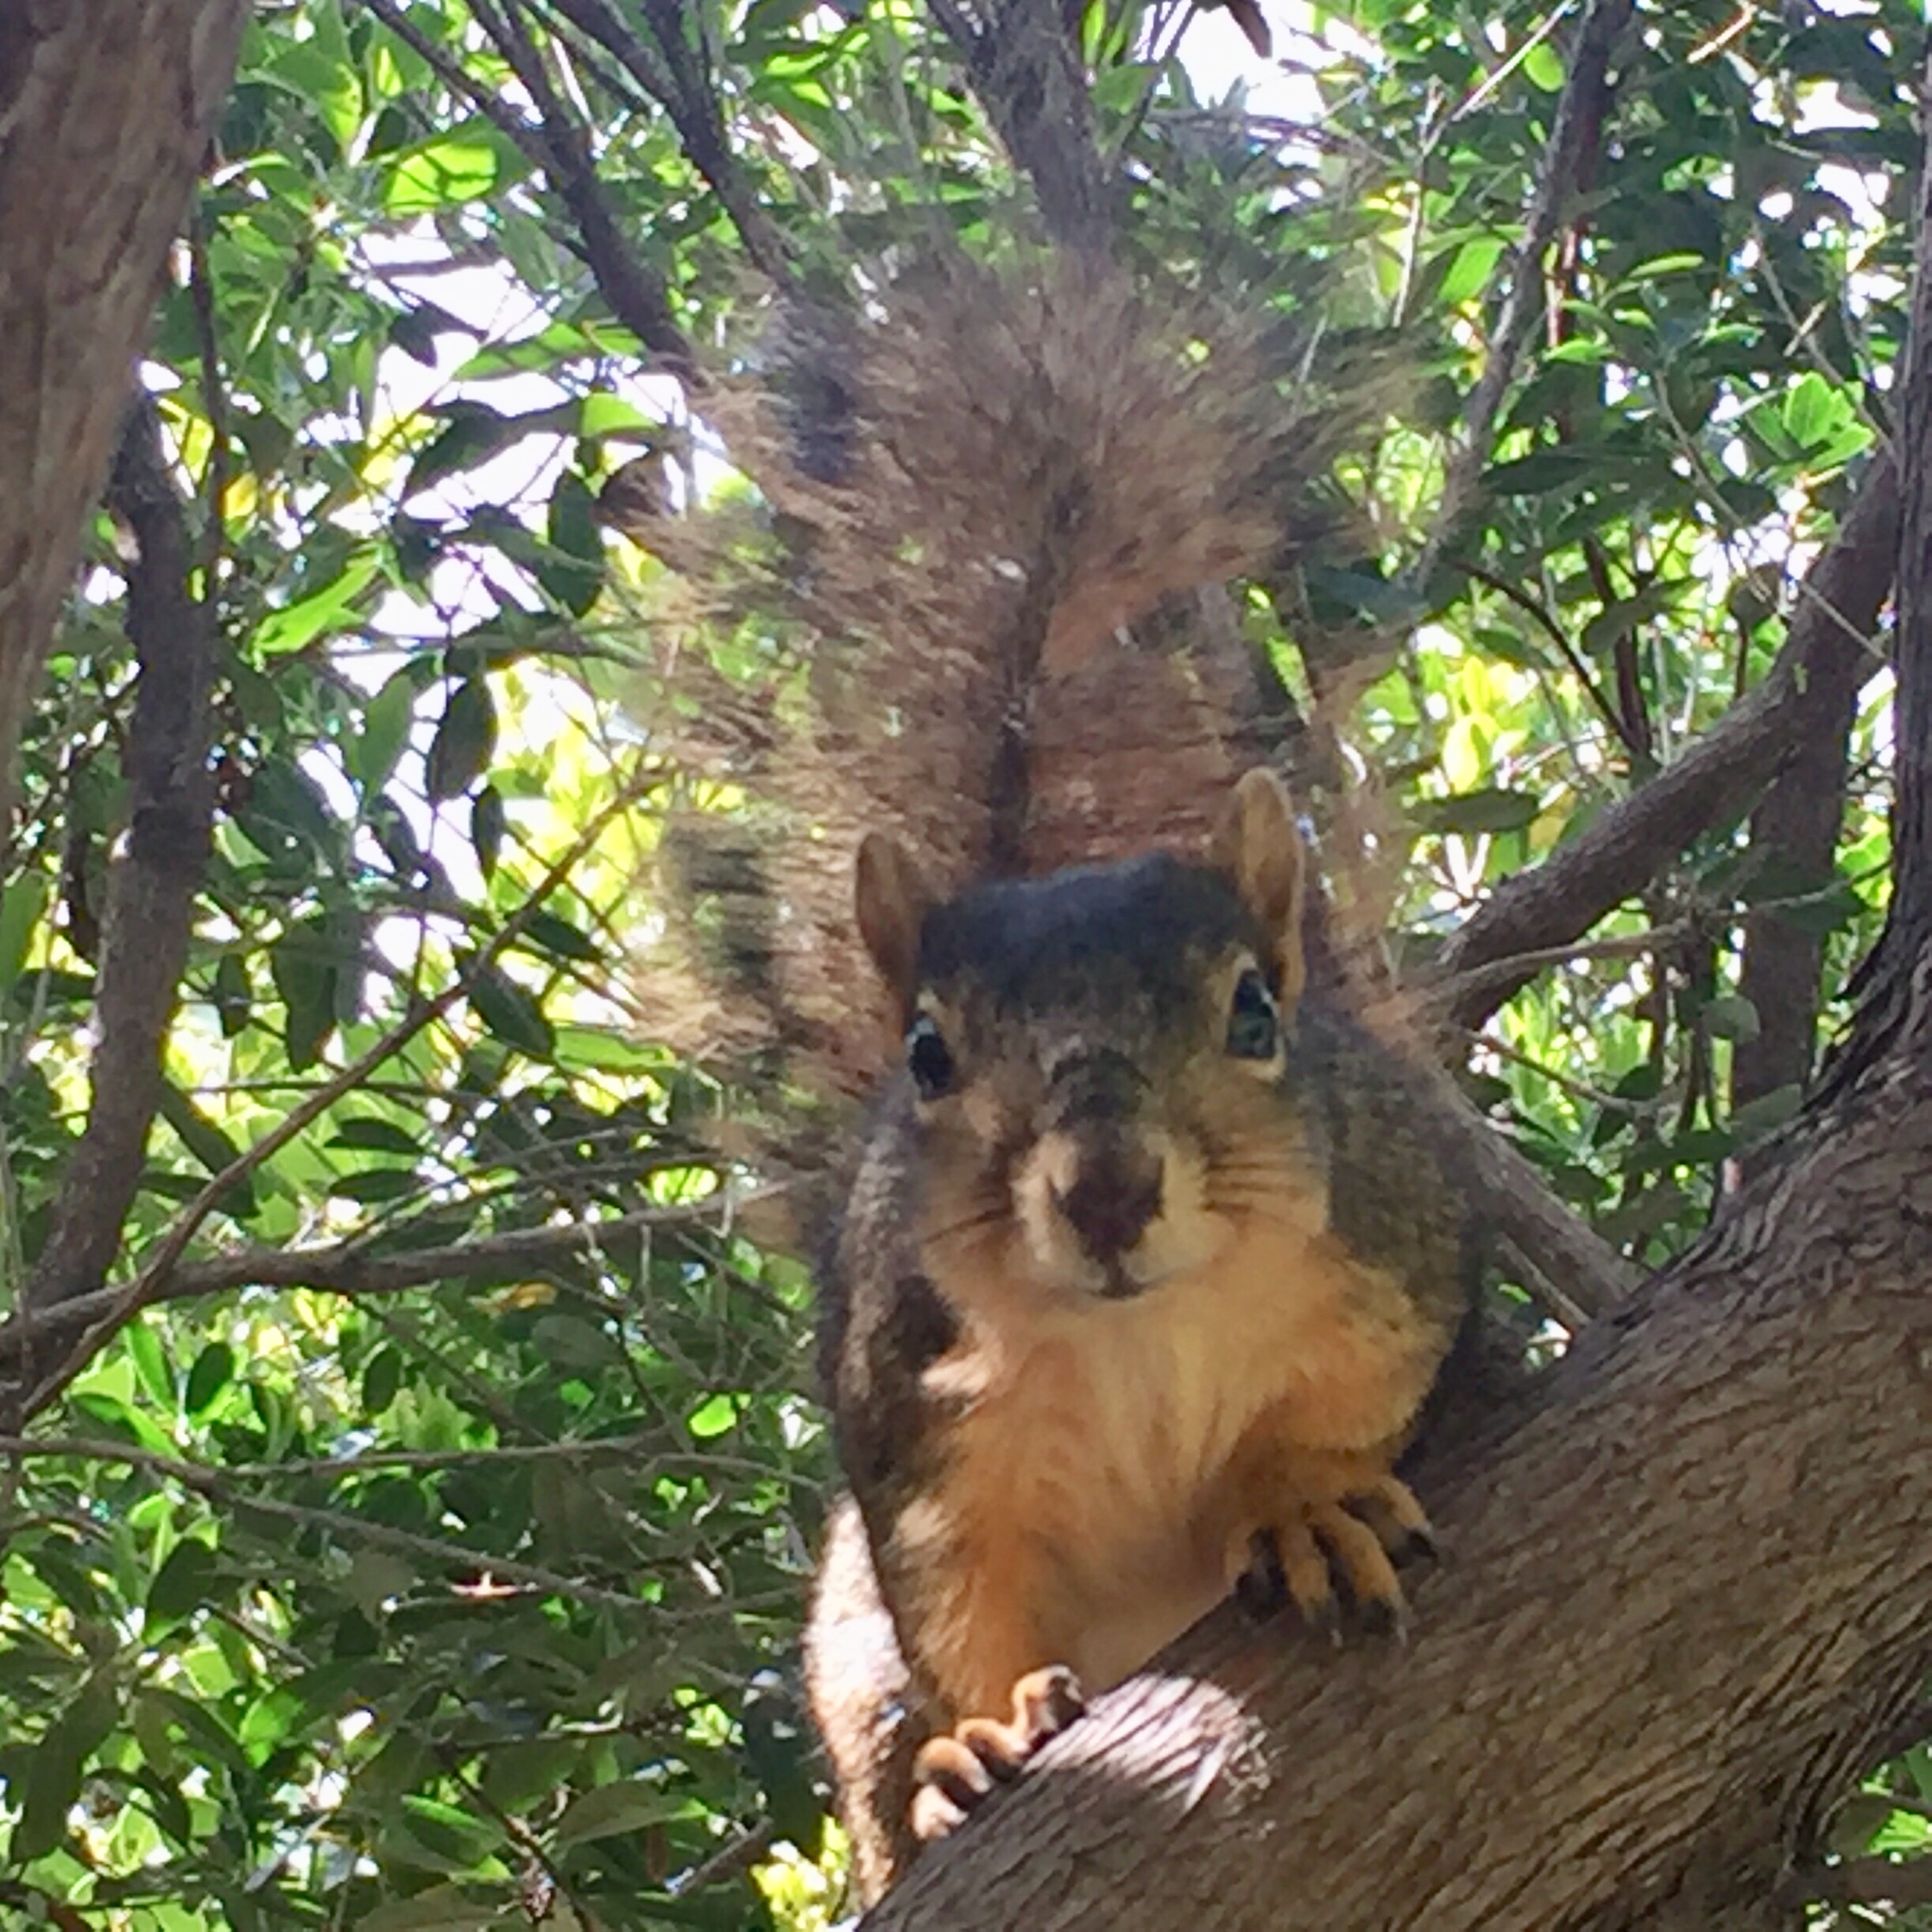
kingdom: Animalia
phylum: Chordata
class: Mammalia
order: Rodentia
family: Sciuridae
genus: Sciurus
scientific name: Sciurus niger
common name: Fox squirrel
